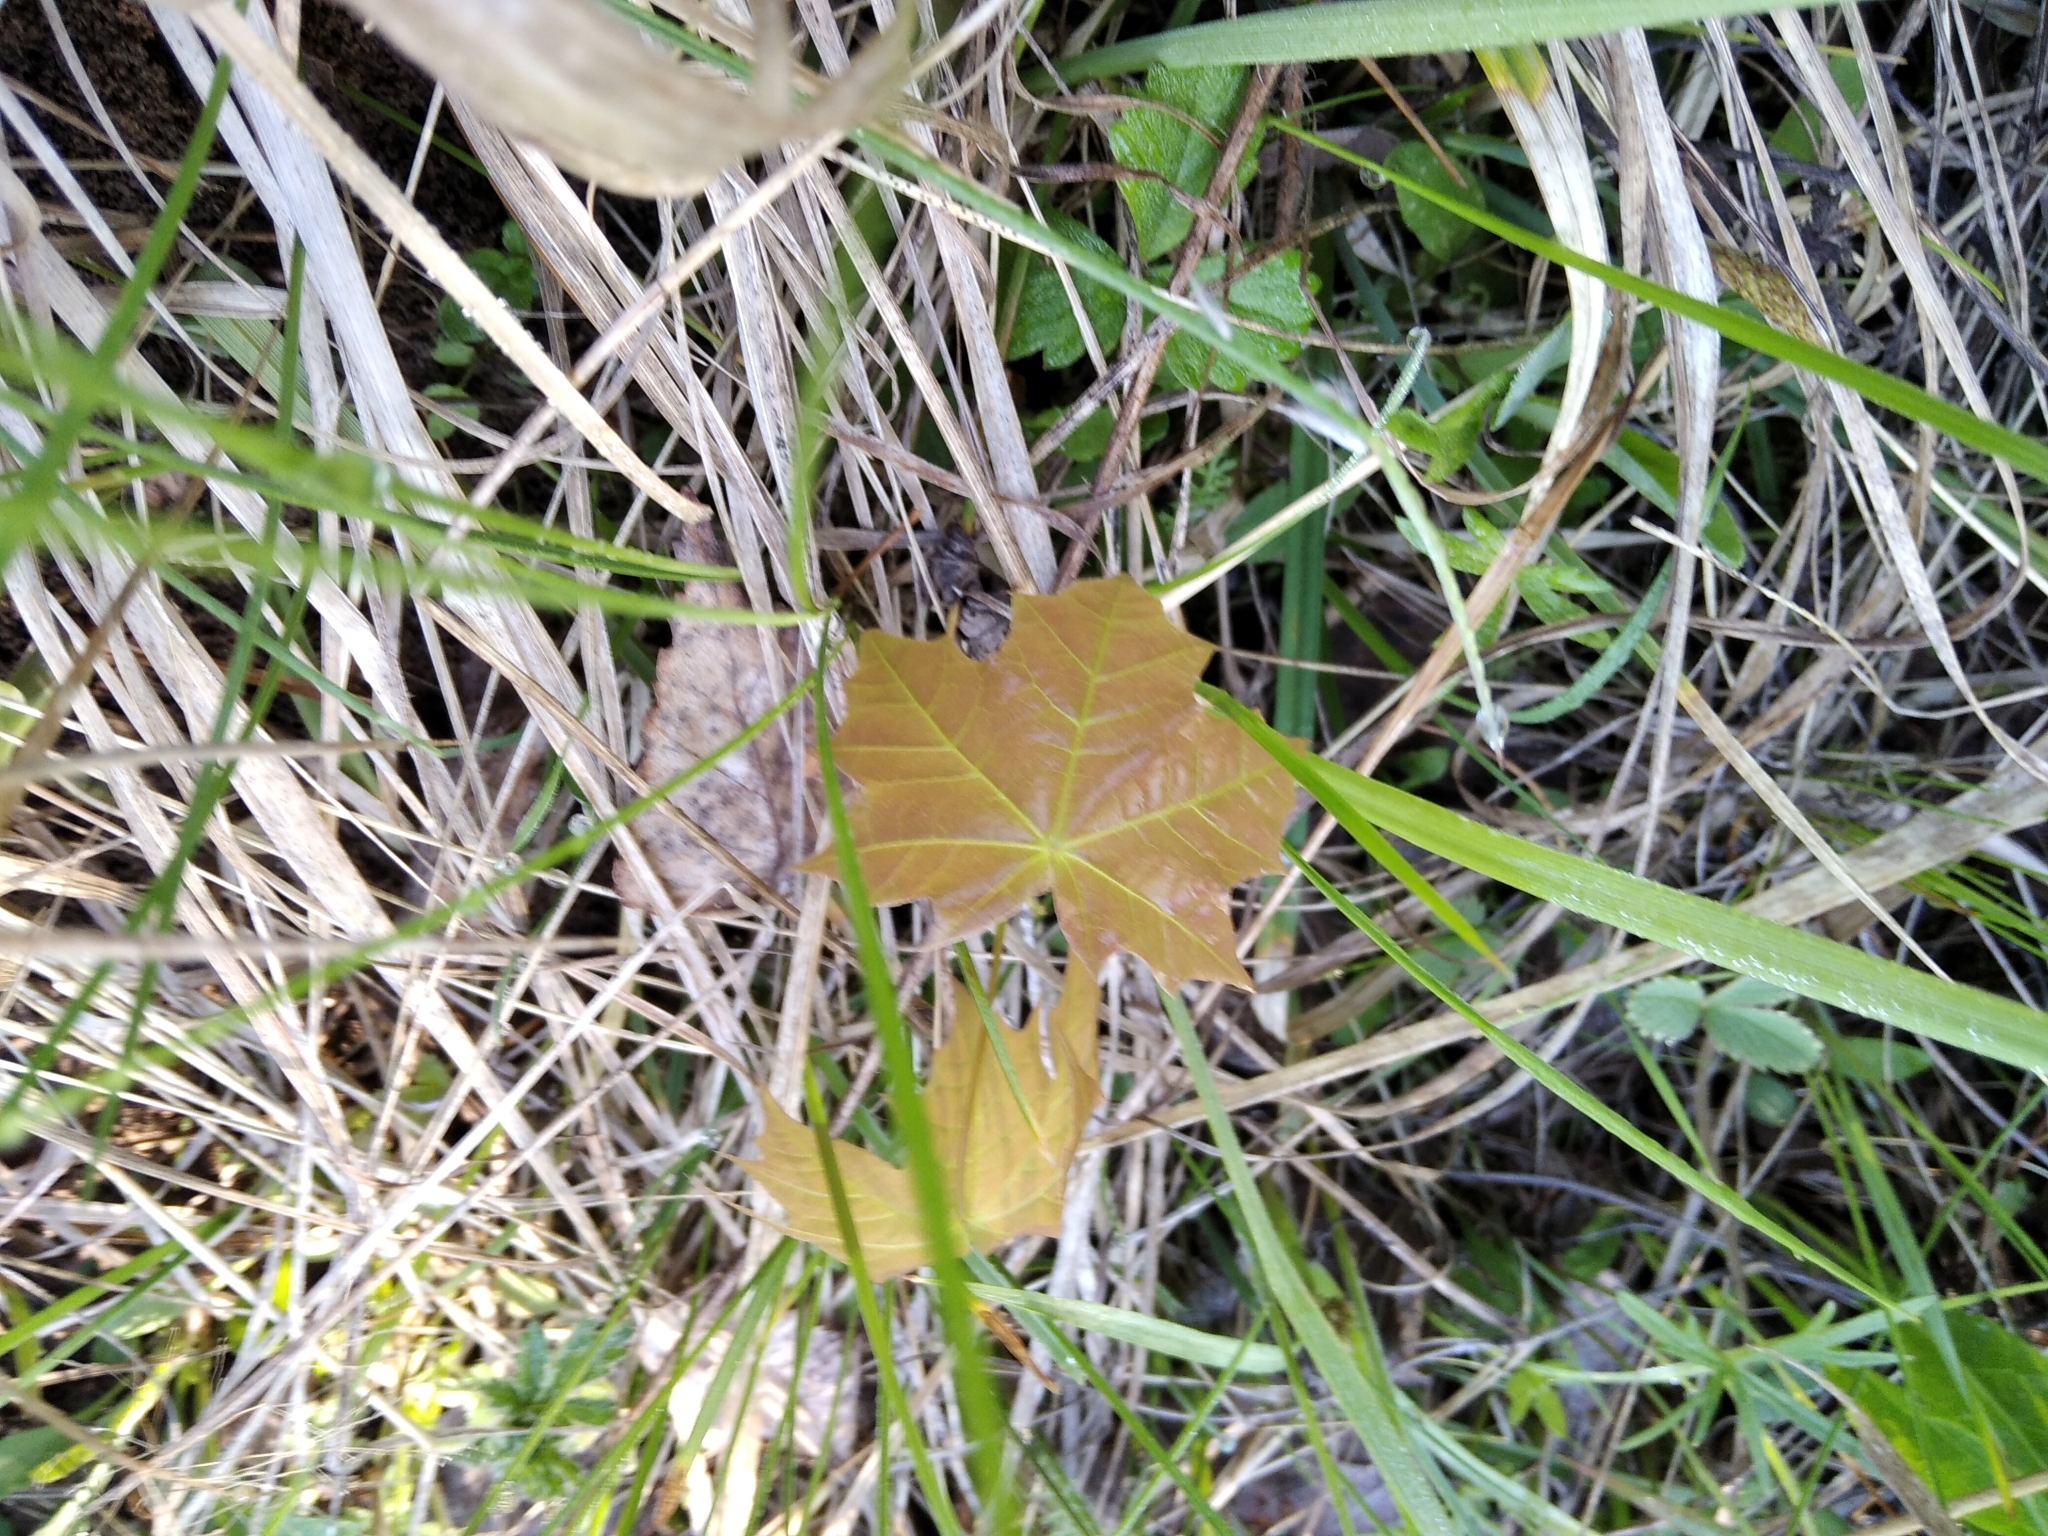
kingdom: Plantae
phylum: Tracheophyta
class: Magnoliopsida
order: Sapindales
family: Sapindaceae
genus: Acer
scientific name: Acer platanoides
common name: Norway maple
